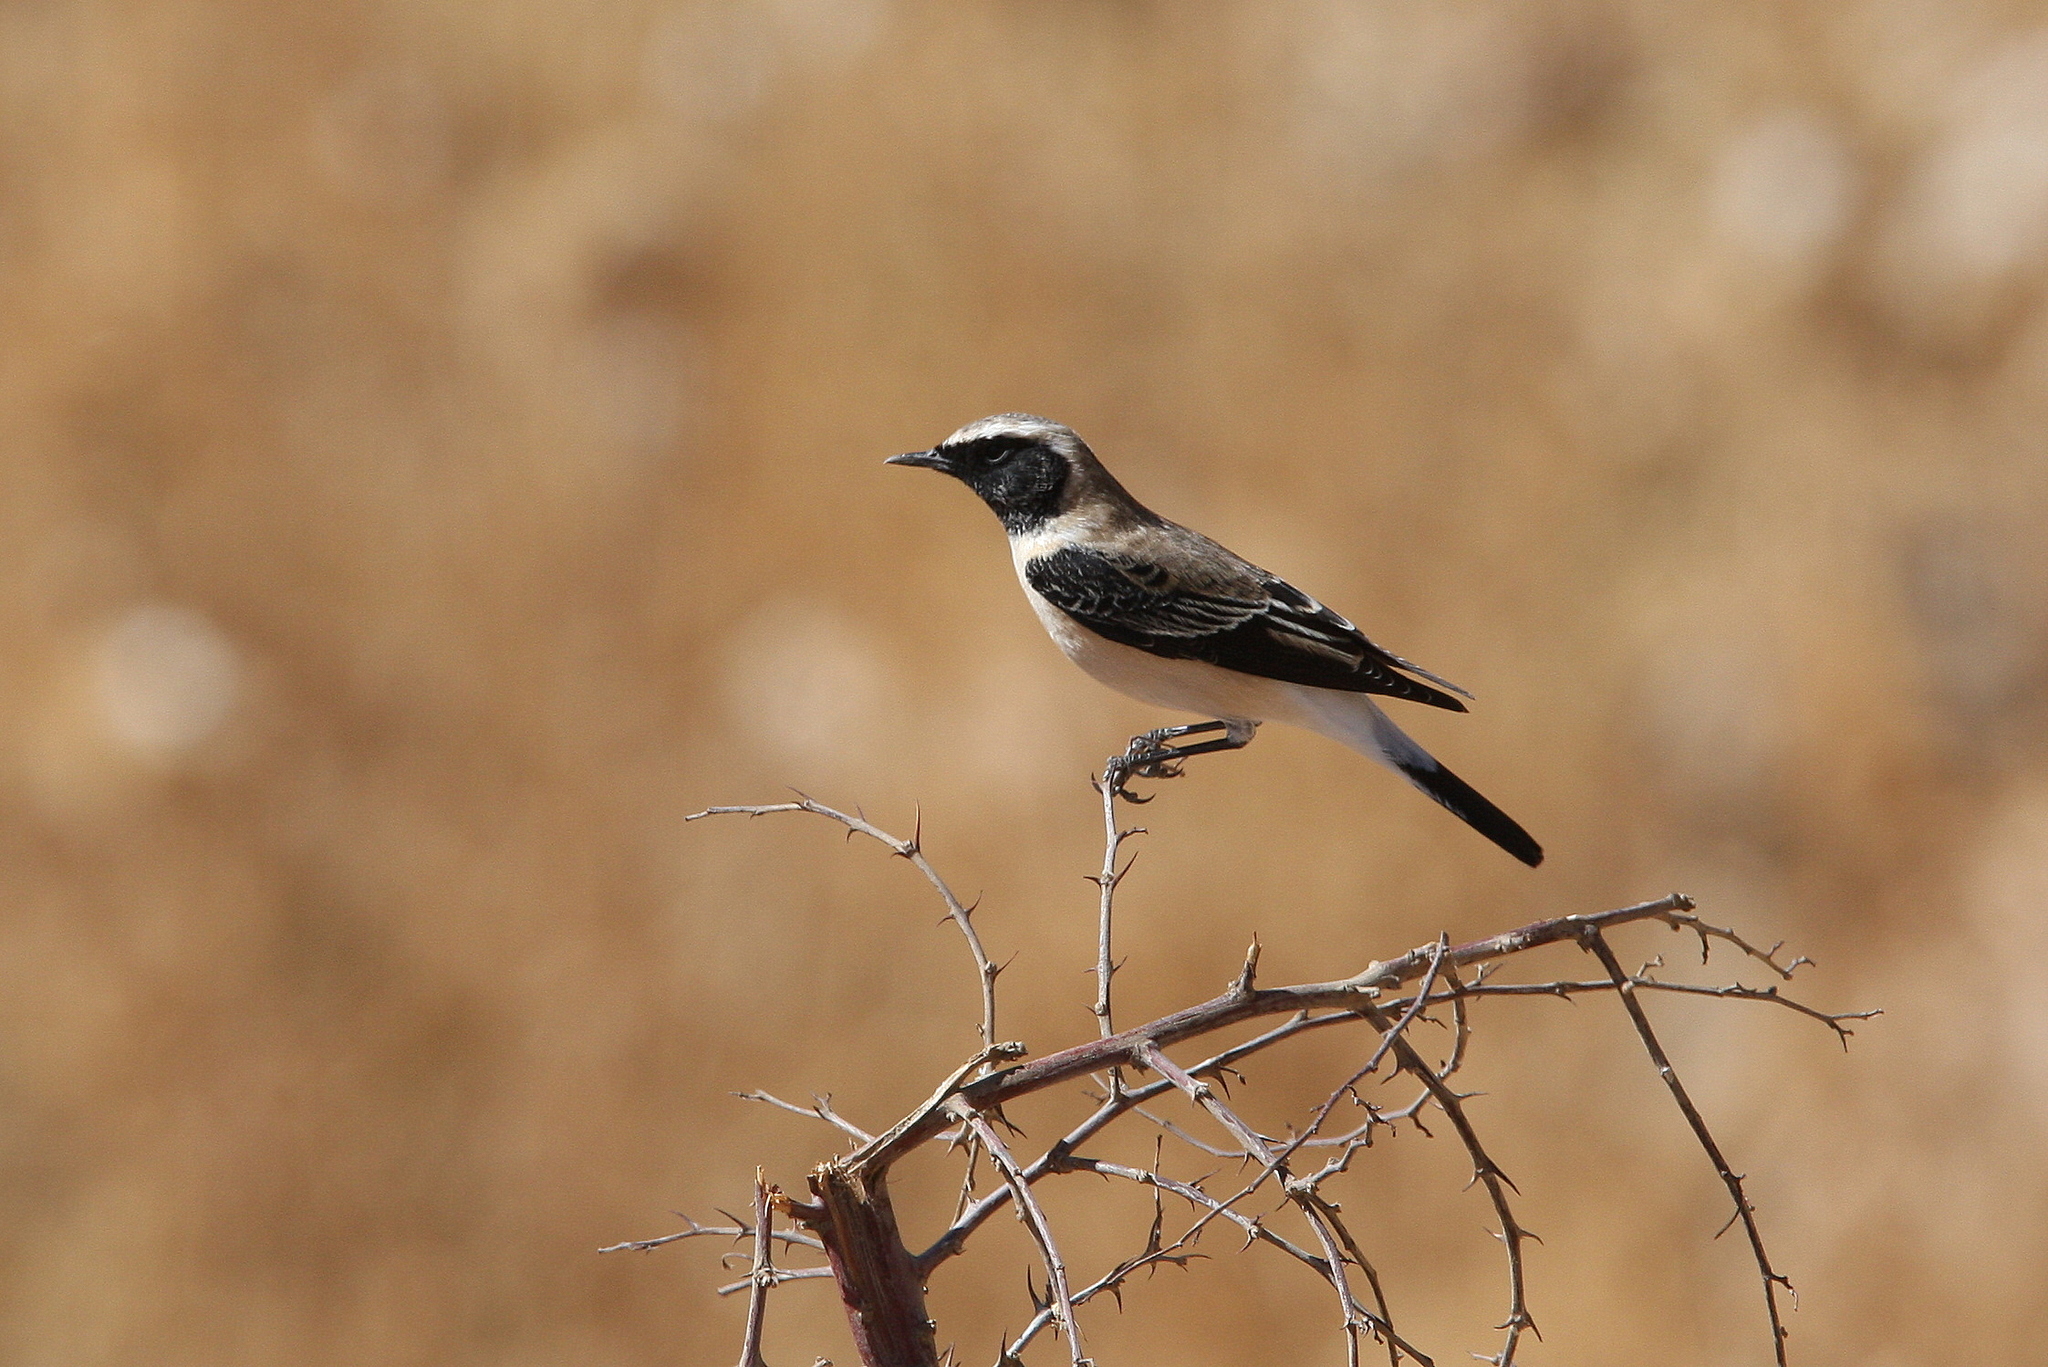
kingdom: Animalia
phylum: Chordata
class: Aves
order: Passeriformes
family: Muscicapidae
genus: Oenanthe
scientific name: Oenanthe hispanica
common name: Black-eared wheatear
